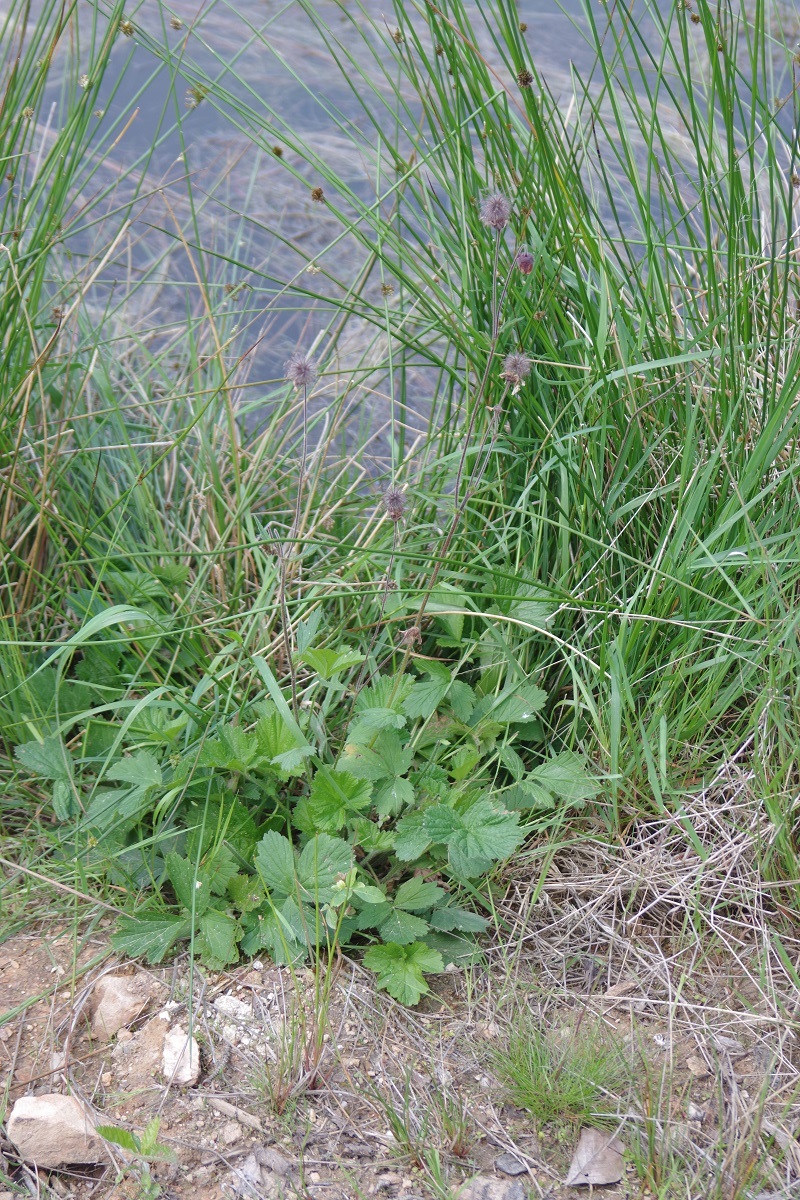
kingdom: Plantae
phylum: Tracheophyta
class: Magnoliopsida
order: Rosales
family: Rosaceae
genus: Geum
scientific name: Geum rivale
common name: Water avens
